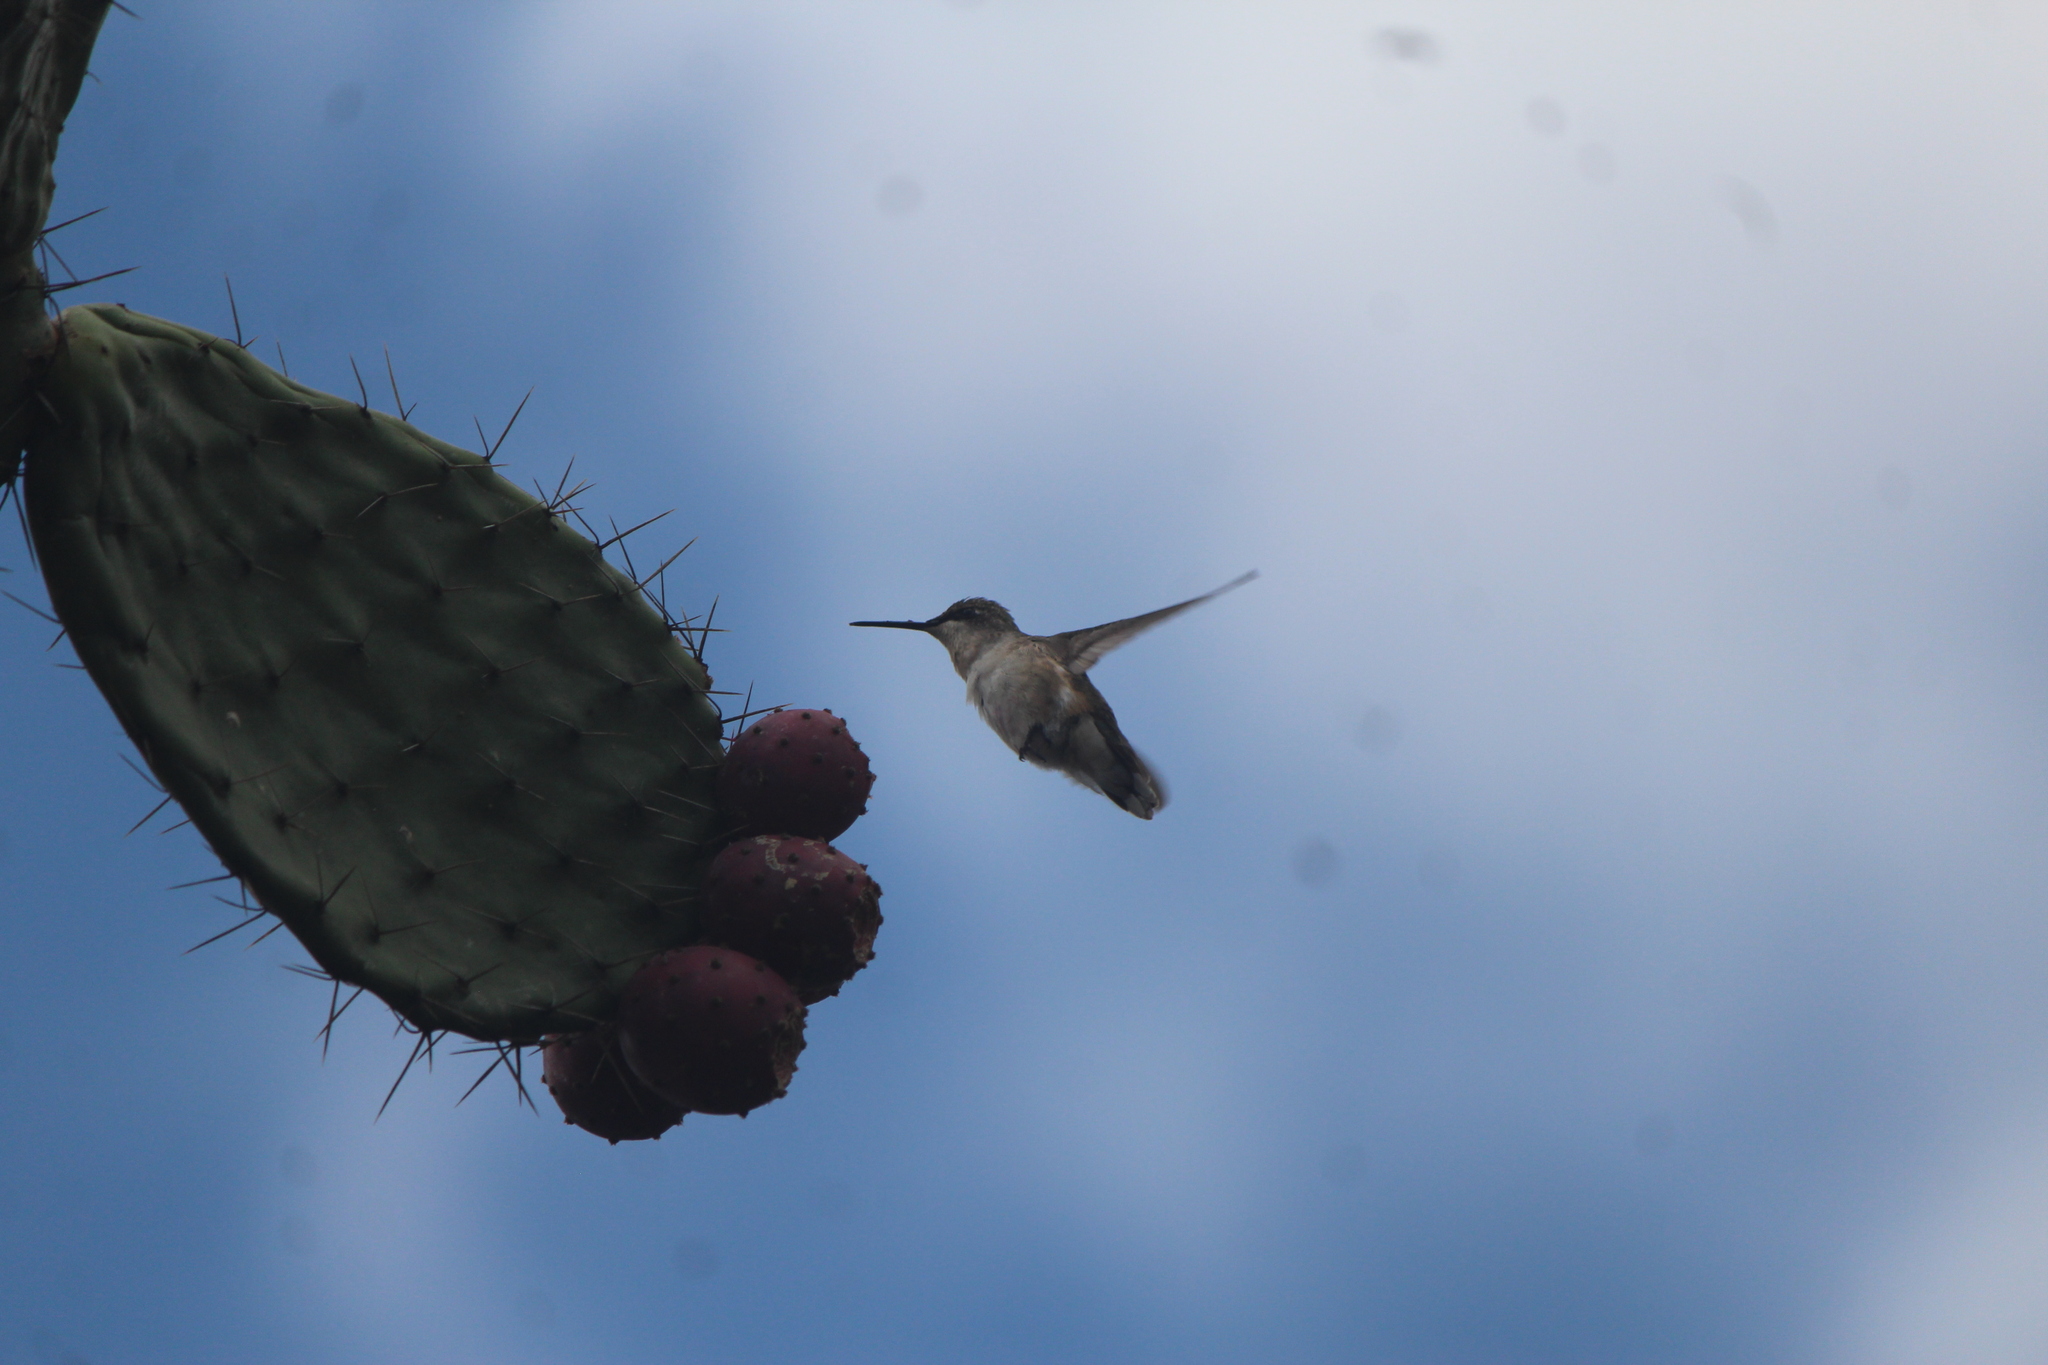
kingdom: Animalia
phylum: Chordata
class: Aves
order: Apodiformes
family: Trochilidae
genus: Archilochus
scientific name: Archilochus colubris
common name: Ruby-throated hummingbird
